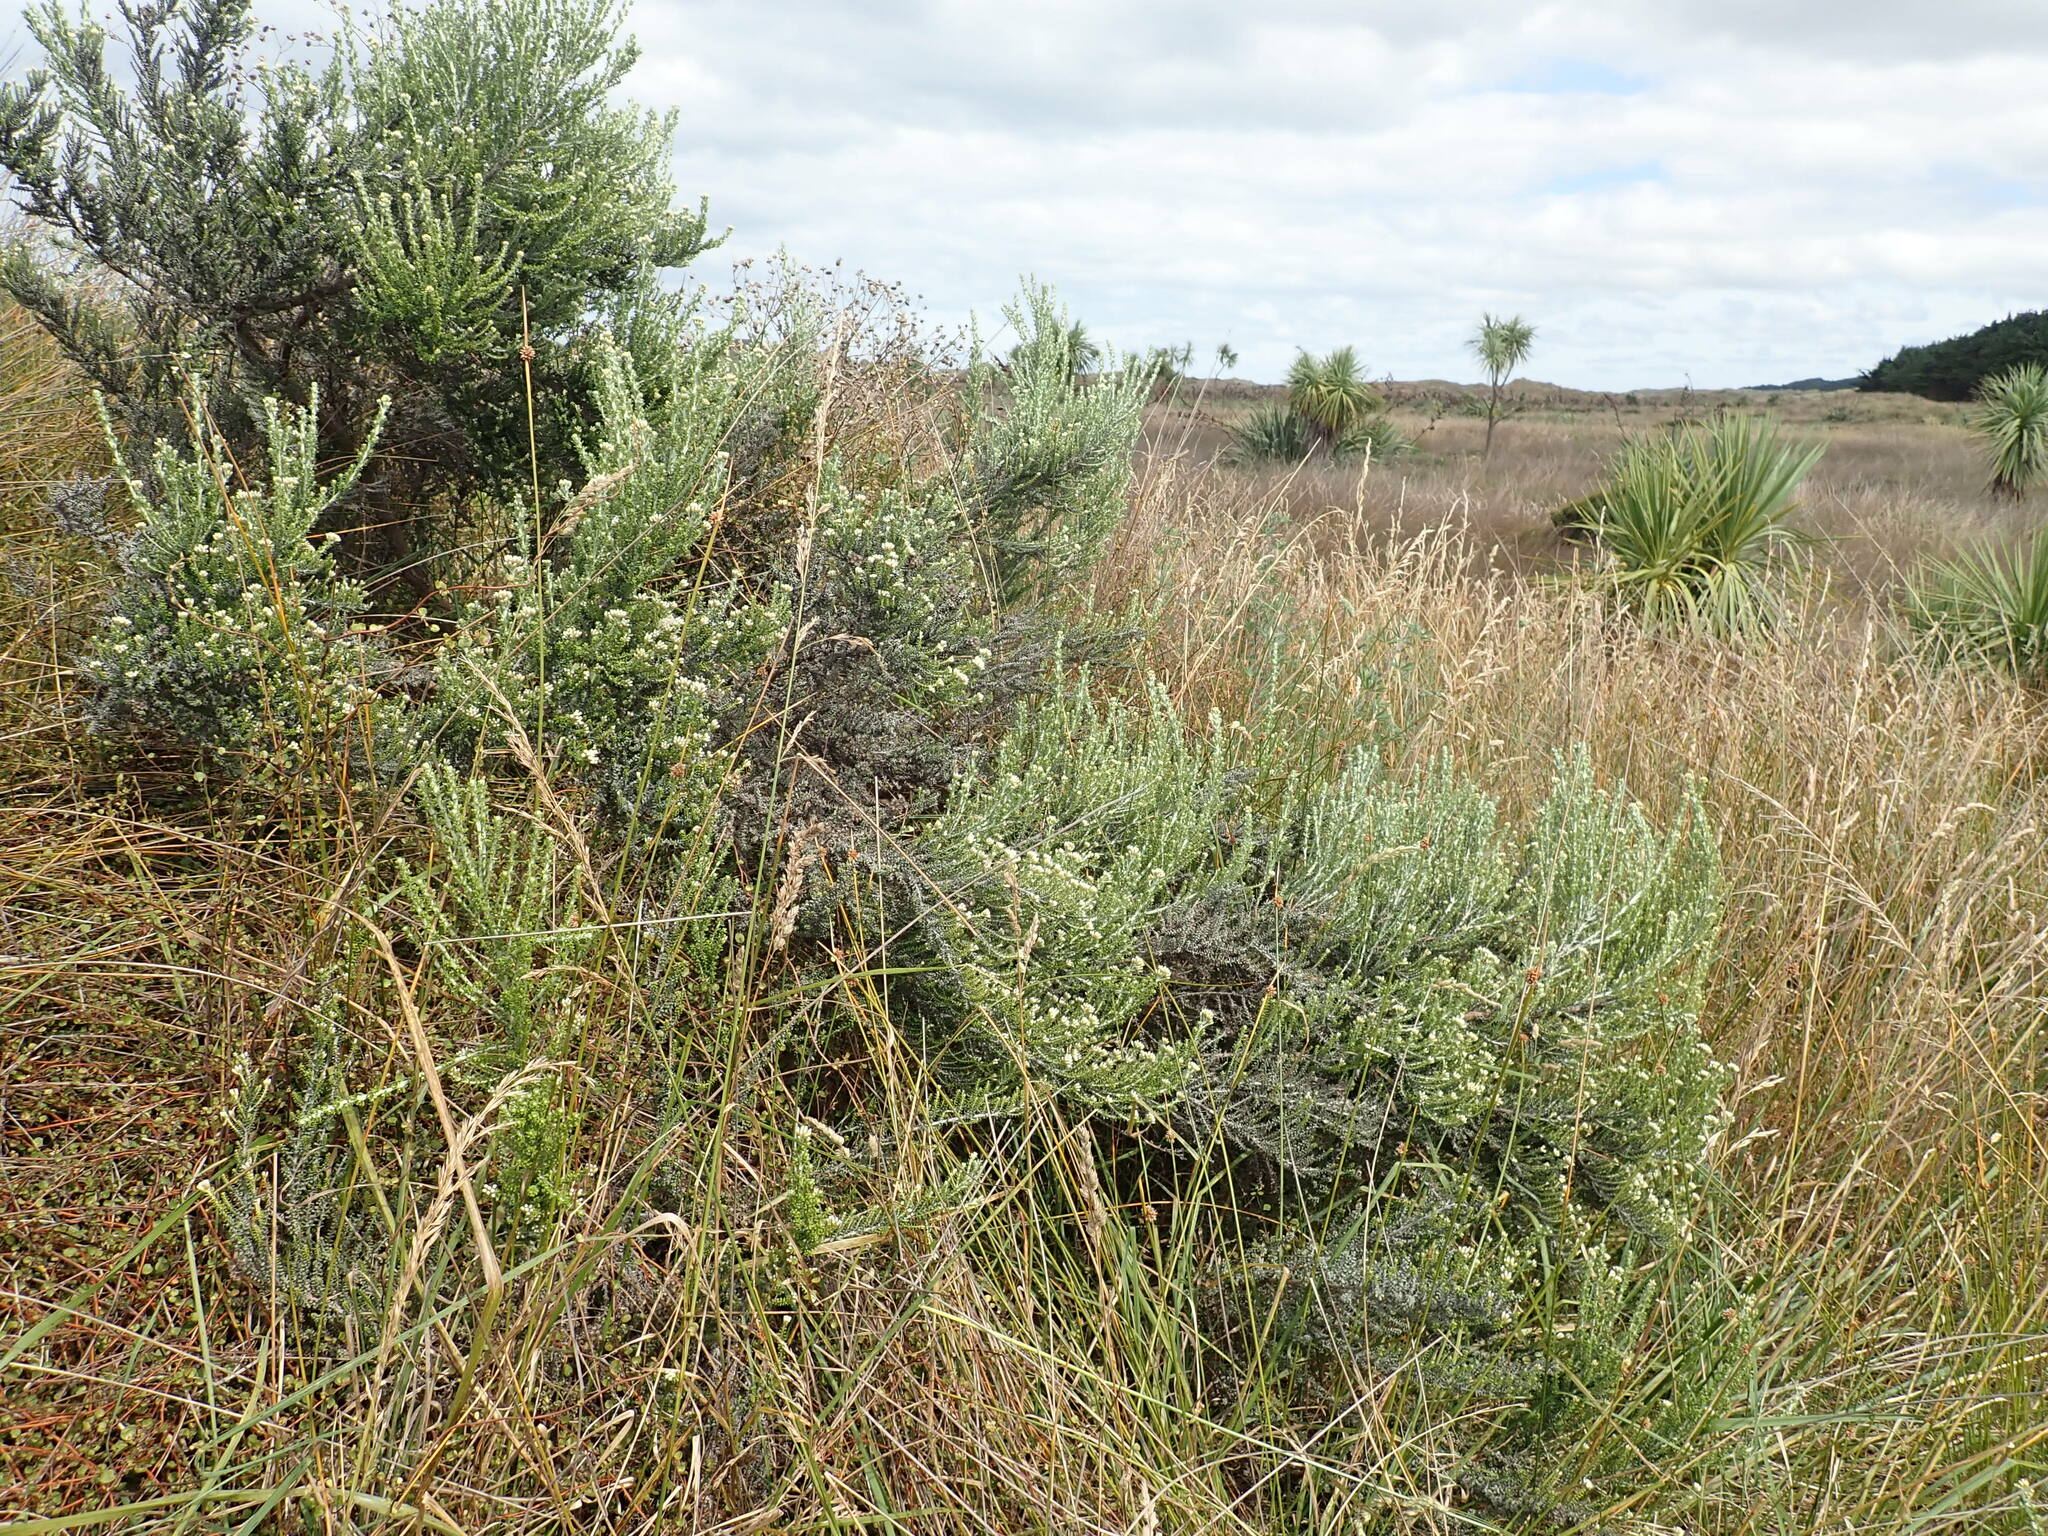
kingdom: Plantae
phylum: Tracheophyta
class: Magnoliopsida
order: Asterales
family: Asteraceae
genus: Ozothamnus
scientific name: Ozothamnus leptophyllus
